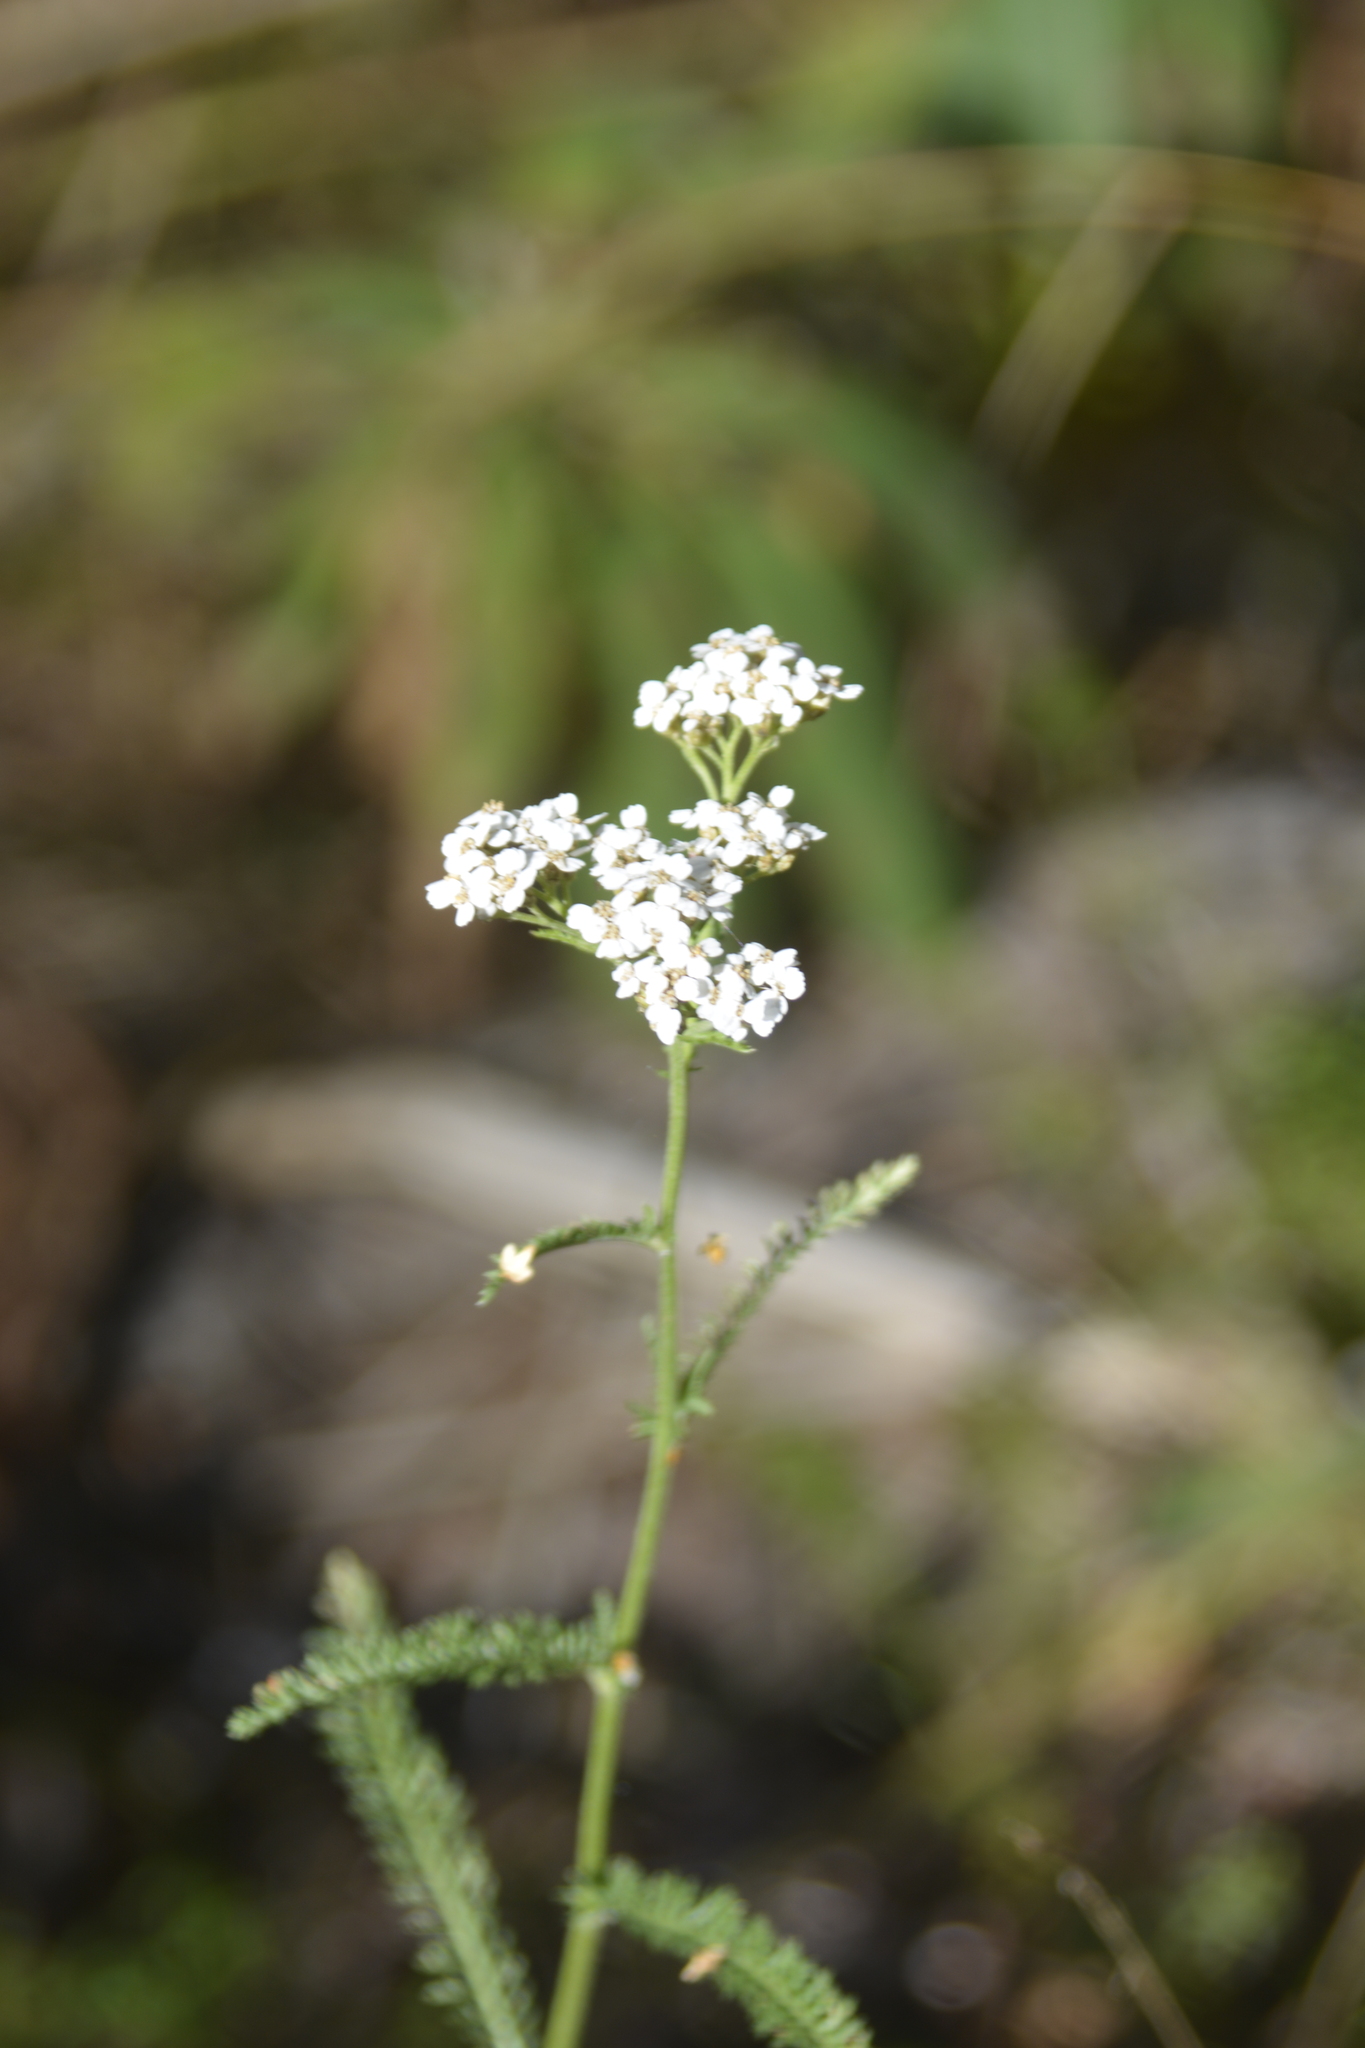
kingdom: Plantae
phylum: Tracheophyta
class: Magnoliopsida
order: Asterales
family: Asteraceae
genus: Achillea
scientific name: Achillea millefolium
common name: Yarrow
